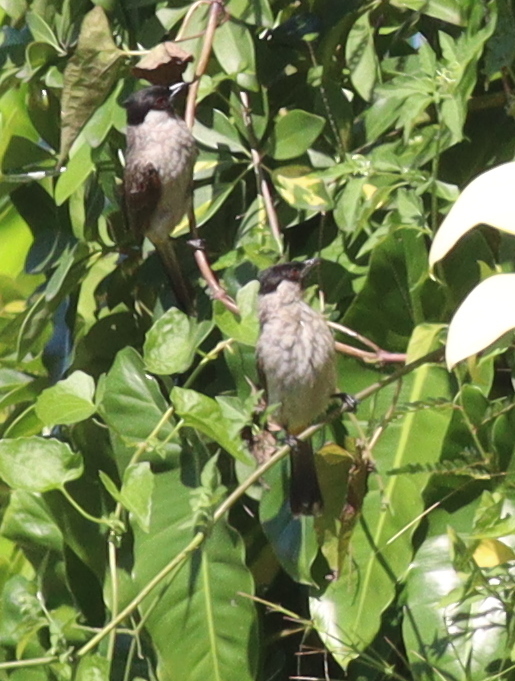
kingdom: Animalia
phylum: Chordata
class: Aves
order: Passeriformes
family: Pycnonotidae
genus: Pycnonotus
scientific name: Pycnonotus aurigaster
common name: Sooty-headed bulbul
